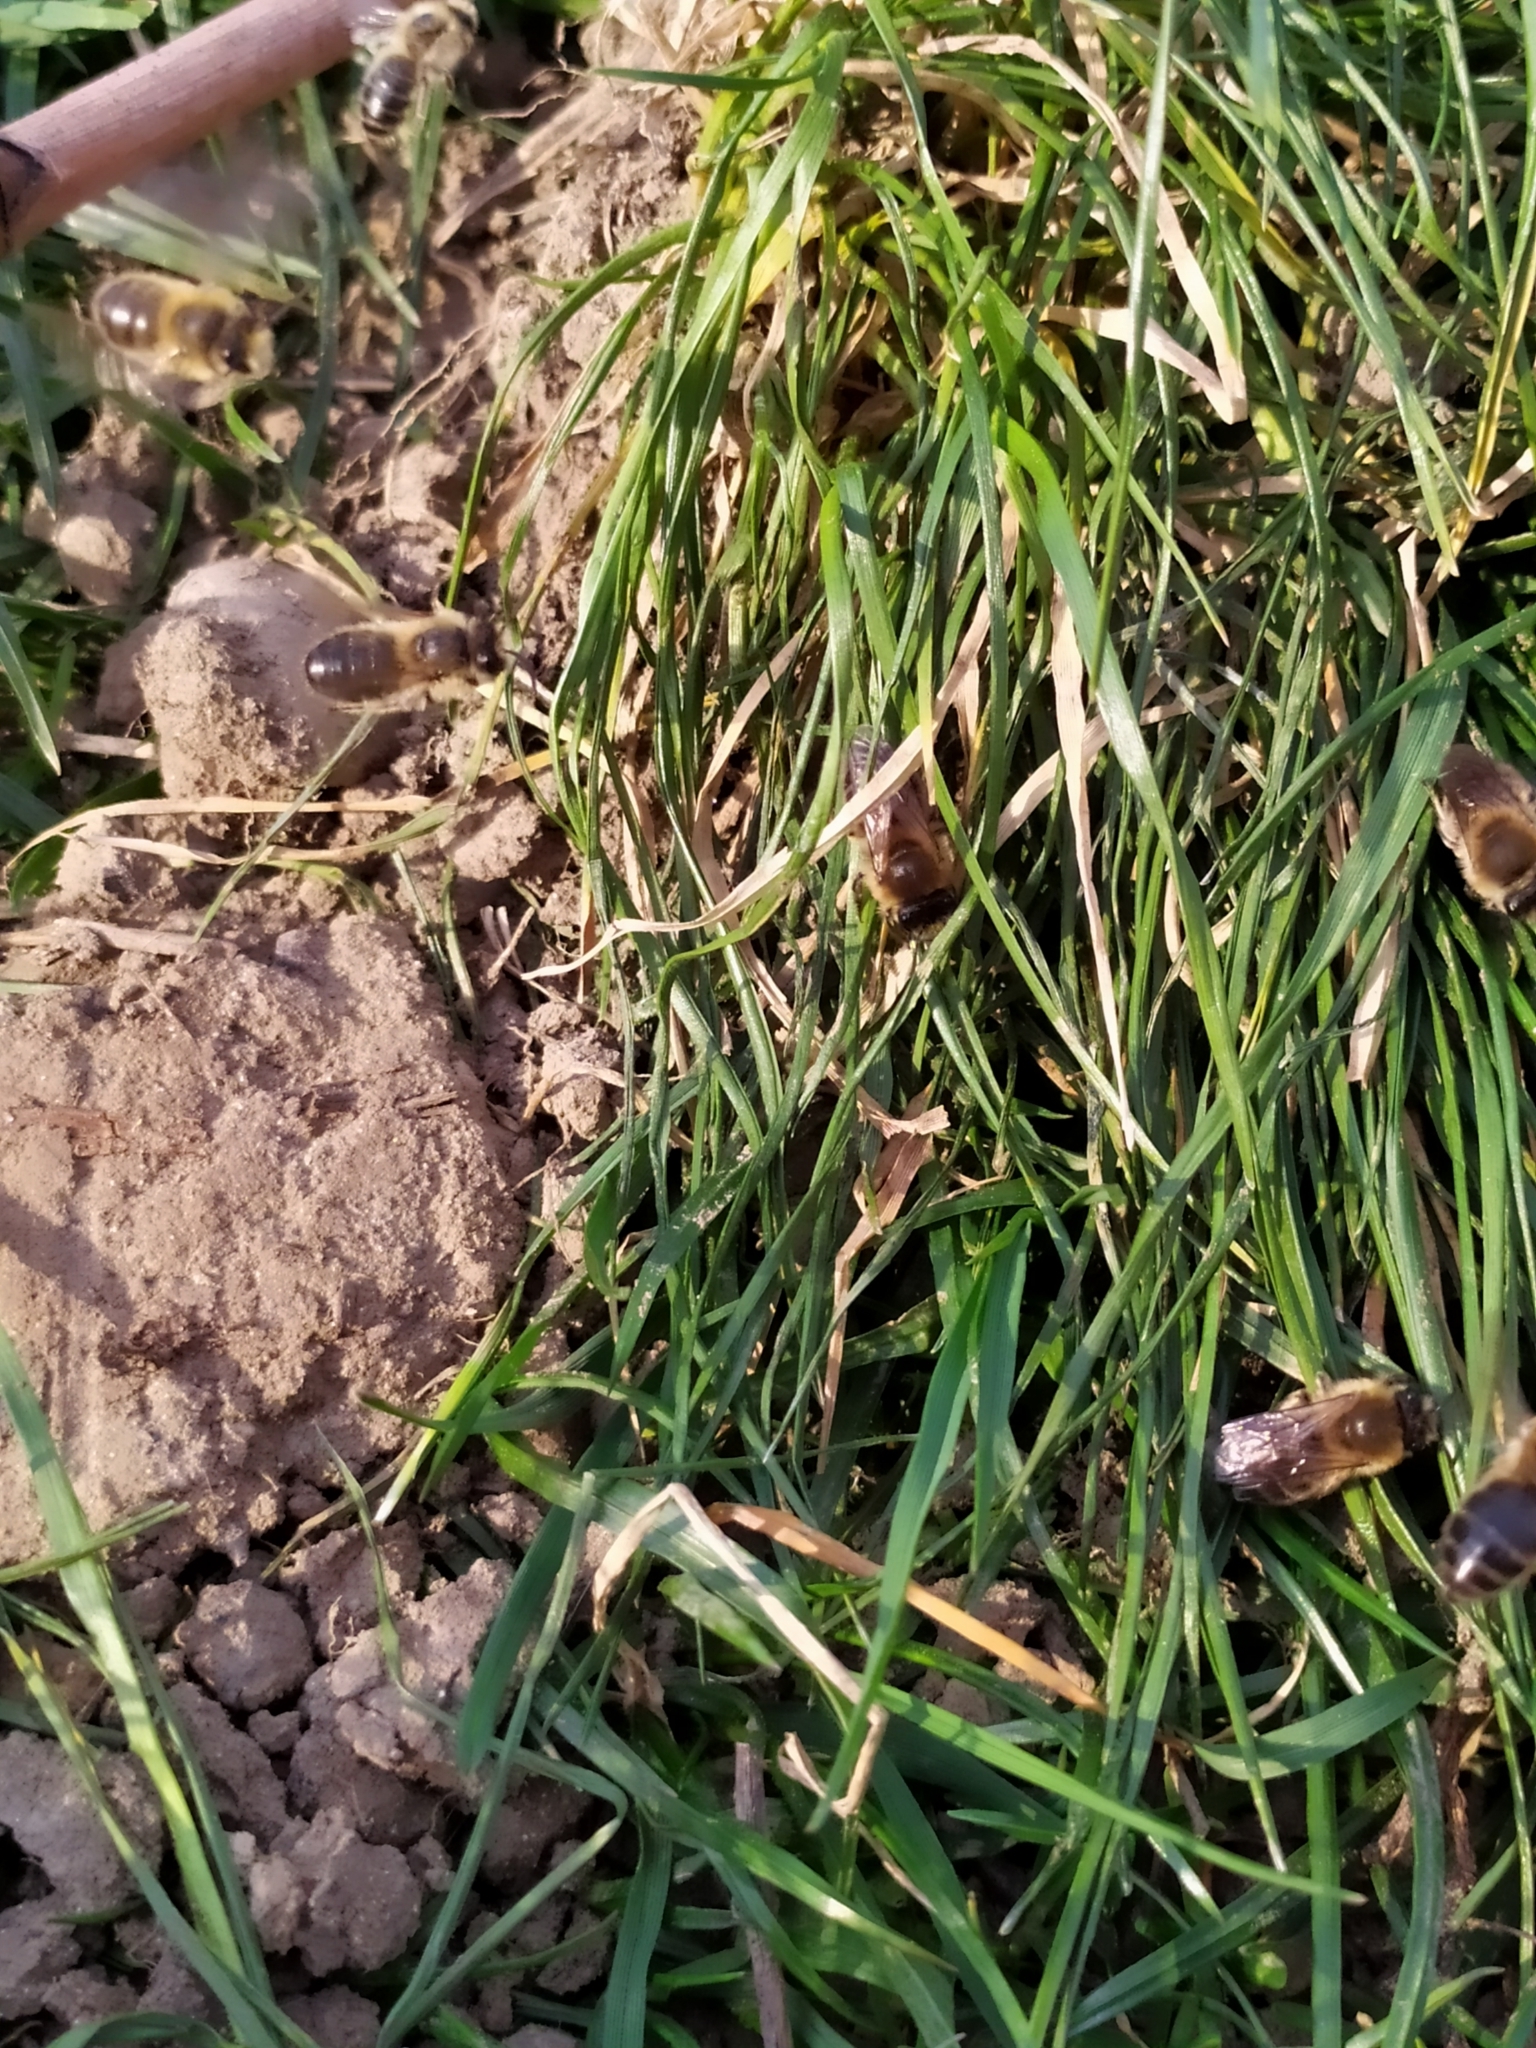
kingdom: Animalia
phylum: Arthropoda
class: Insecta
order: Hymenoptera
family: Colletidae
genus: Colletes
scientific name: Colletes cunicularius
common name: Early colletes
